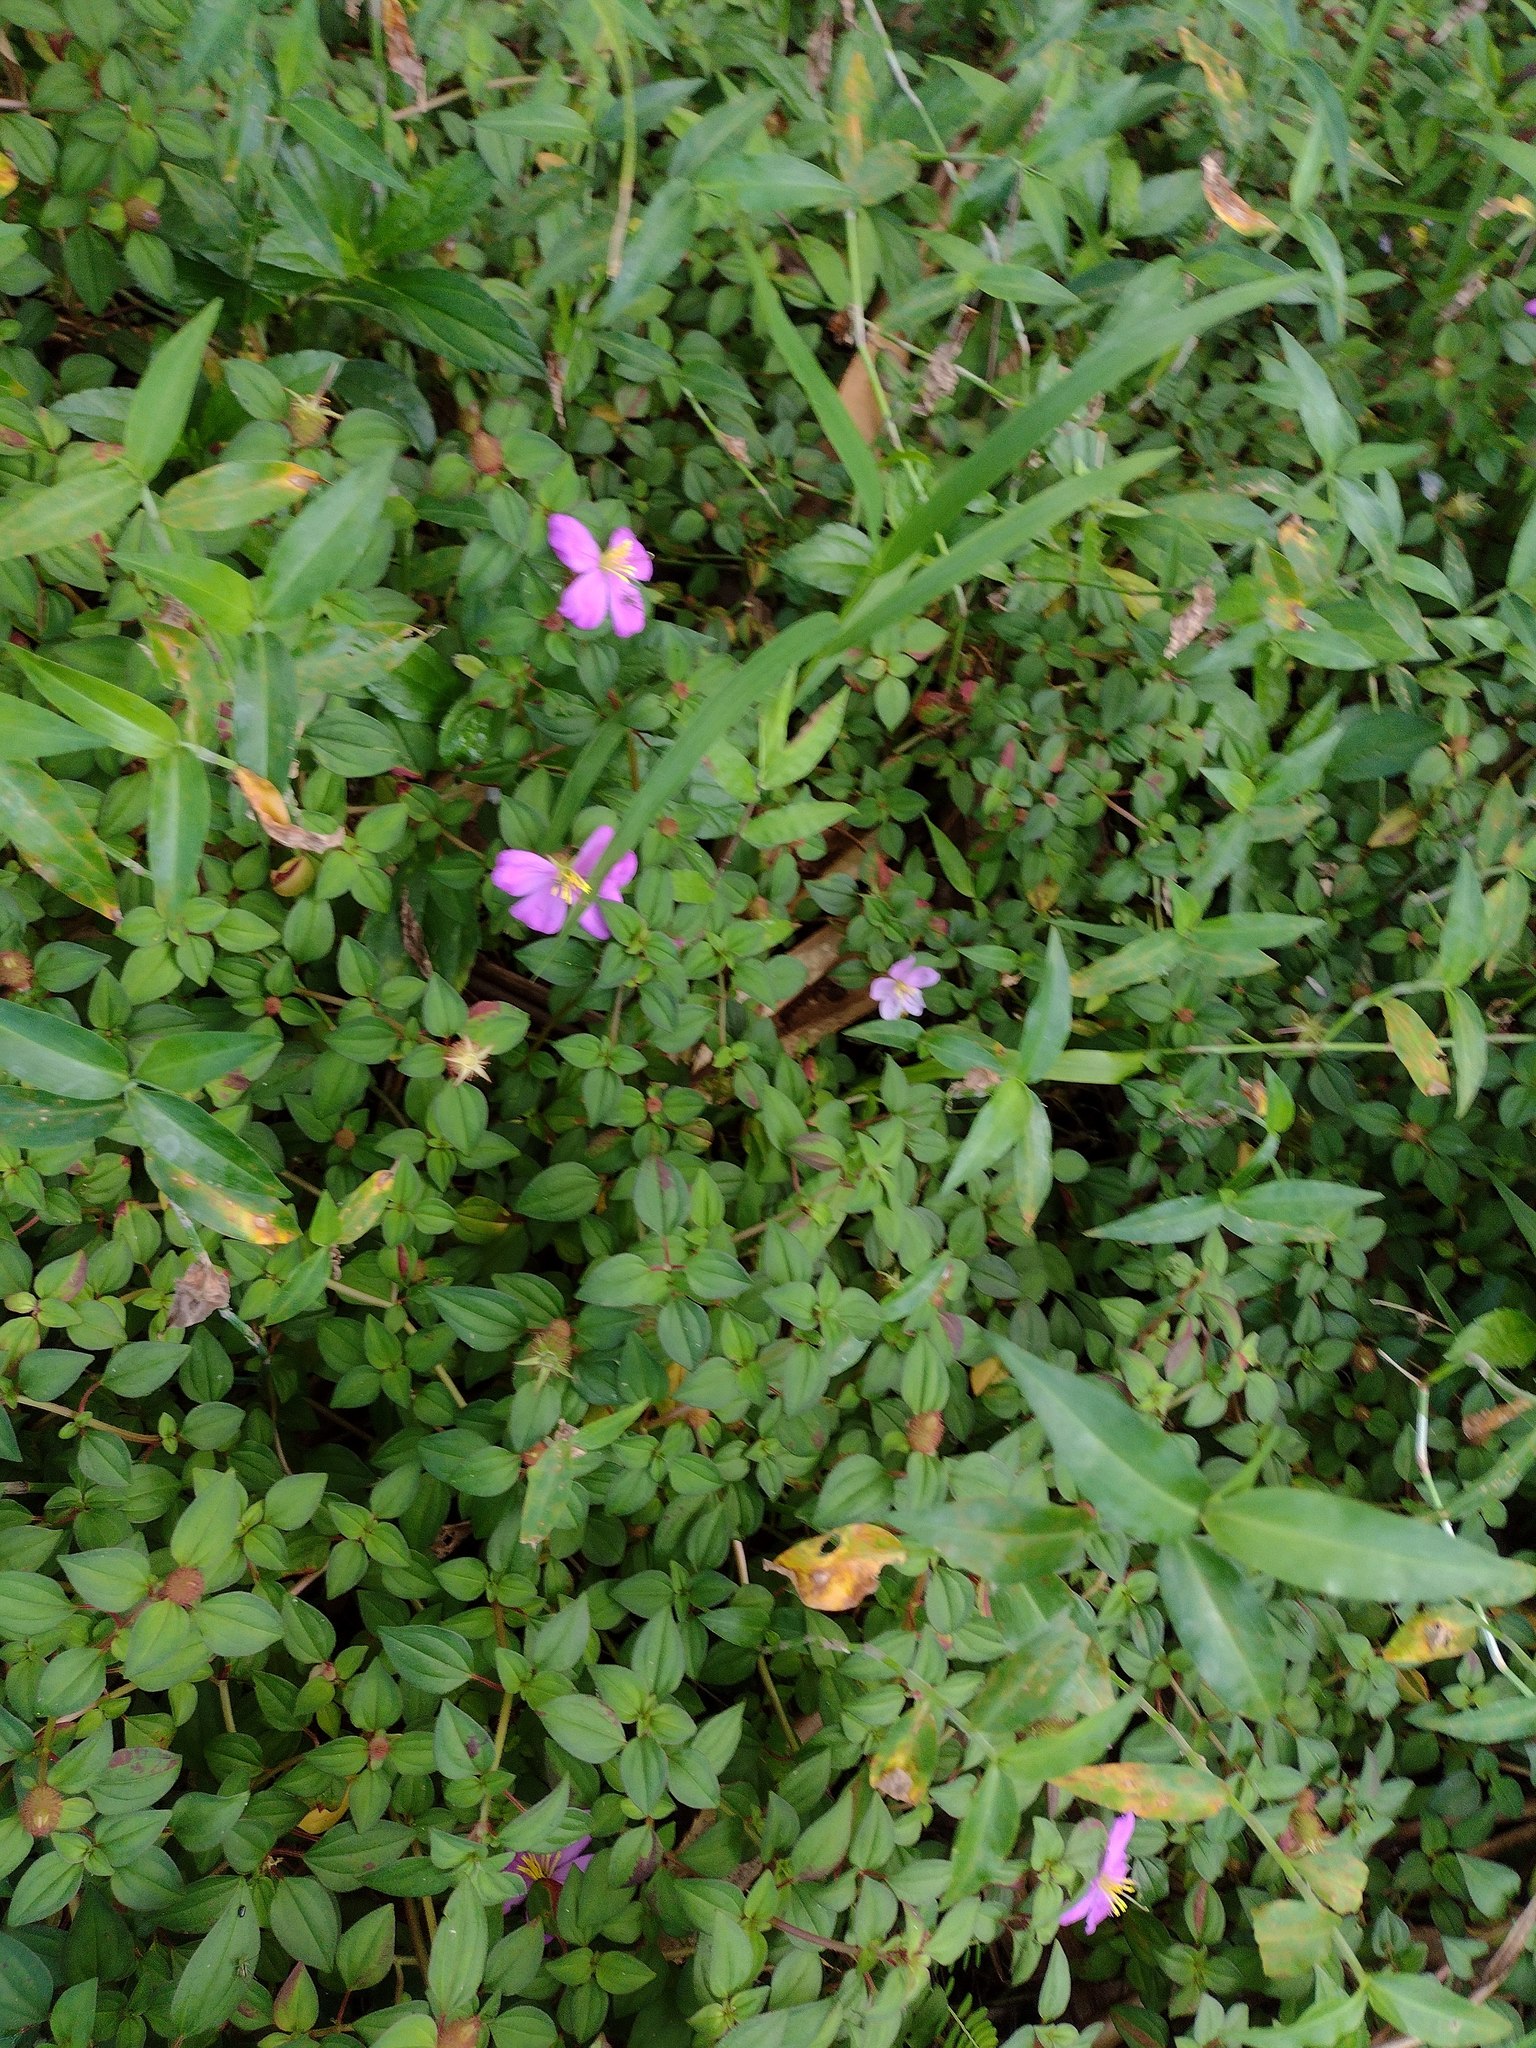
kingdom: Plantae
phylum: Tracheophyta
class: Magnoliopsida
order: Myrtales
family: Melastomataceae
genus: Heterotis
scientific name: Heterotis rotundifolia
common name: Pinklady
